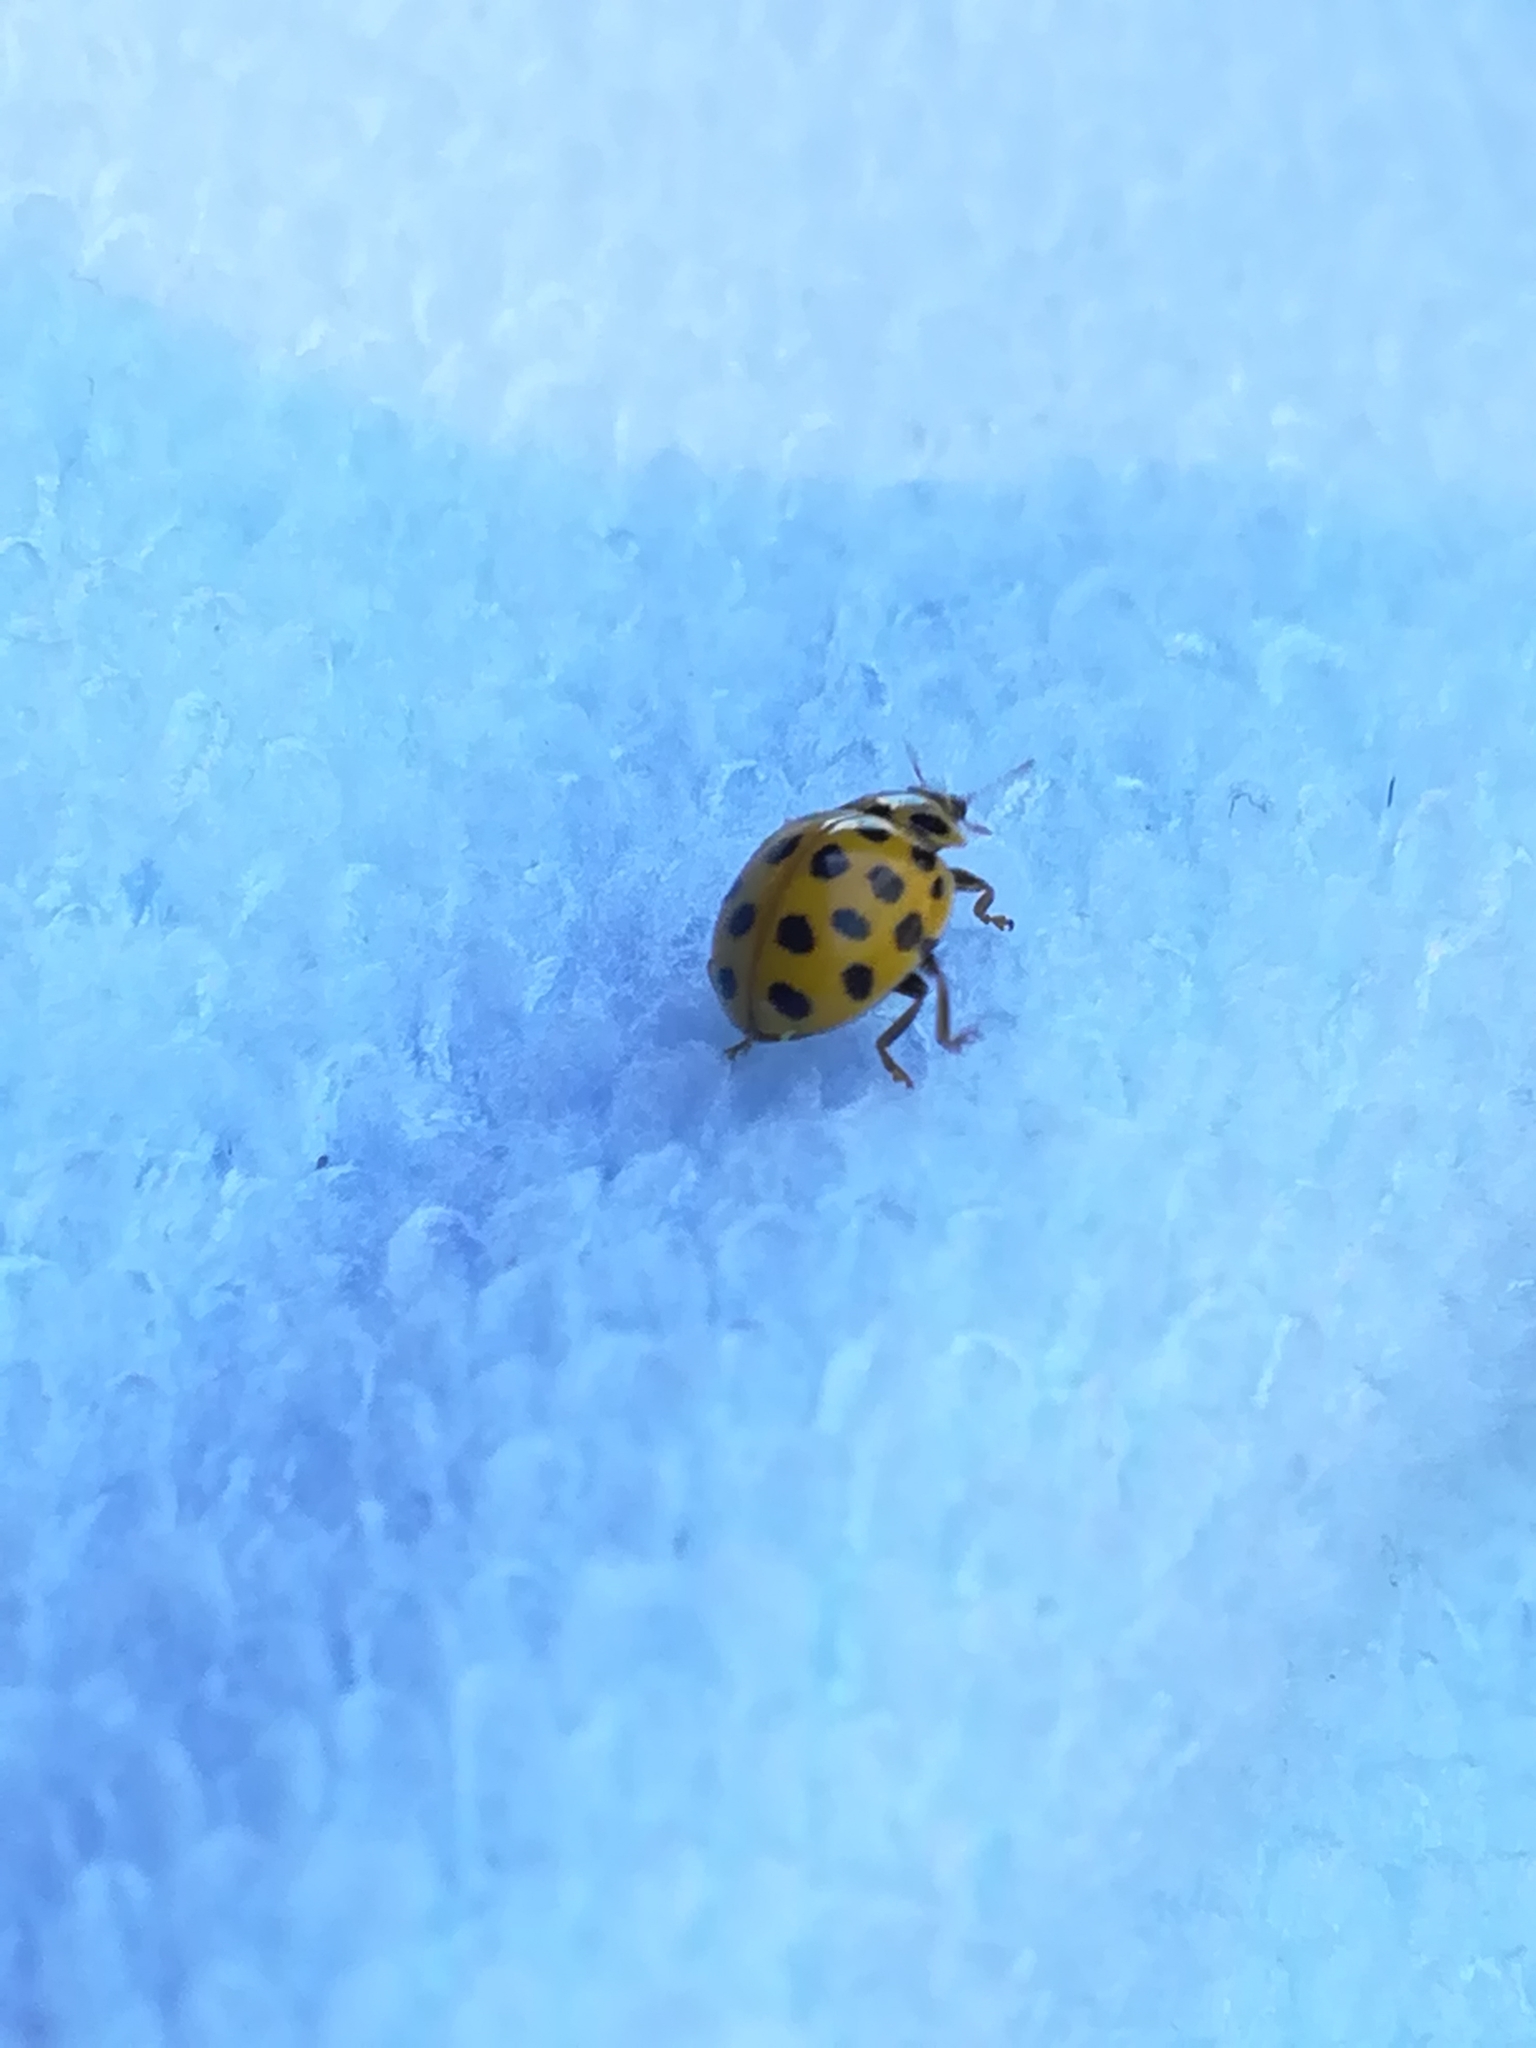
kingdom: Animalia
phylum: Arthropoda
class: Insecta
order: Coleoptera
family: Coccinellidae
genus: Psyllobora
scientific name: Psyllobora vigintiduopunctata
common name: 22-spot ladybird
